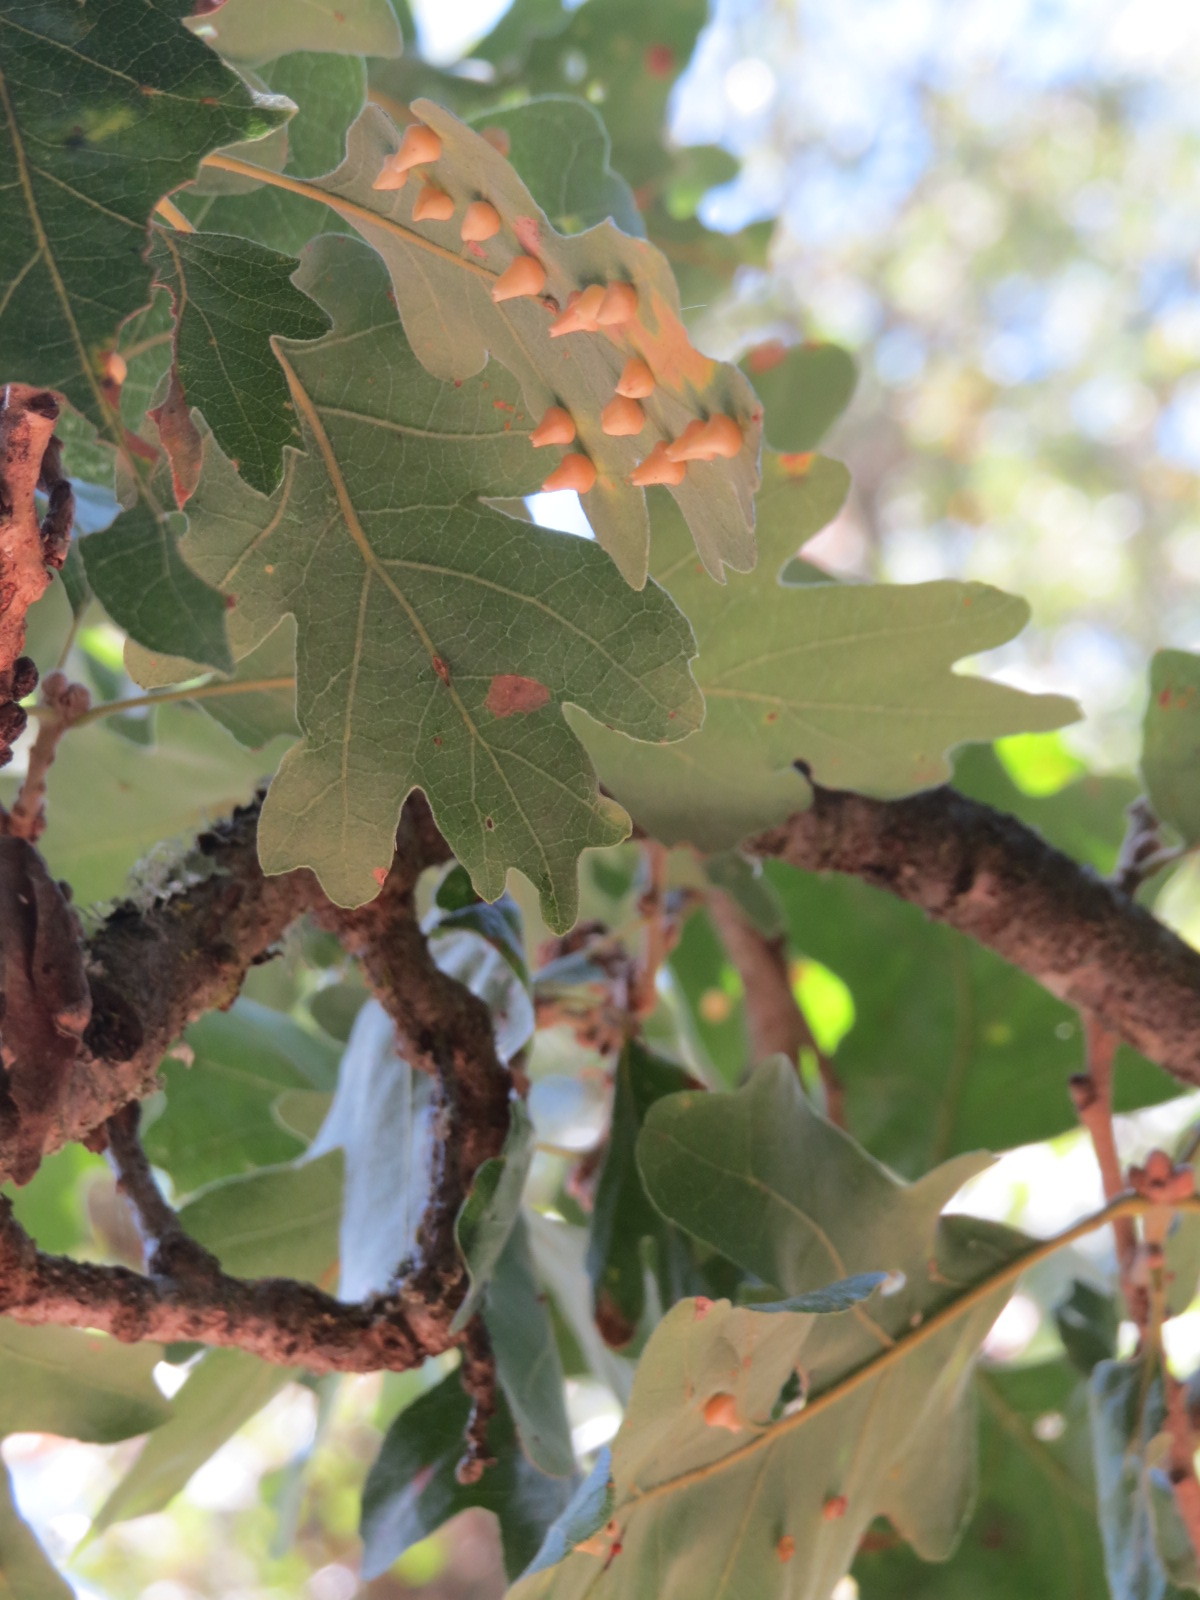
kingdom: Animalia
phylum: Arthropoda
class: Insecta
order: Hymenoptera
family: Cynipidae
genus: Andricus
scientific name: Andricus
